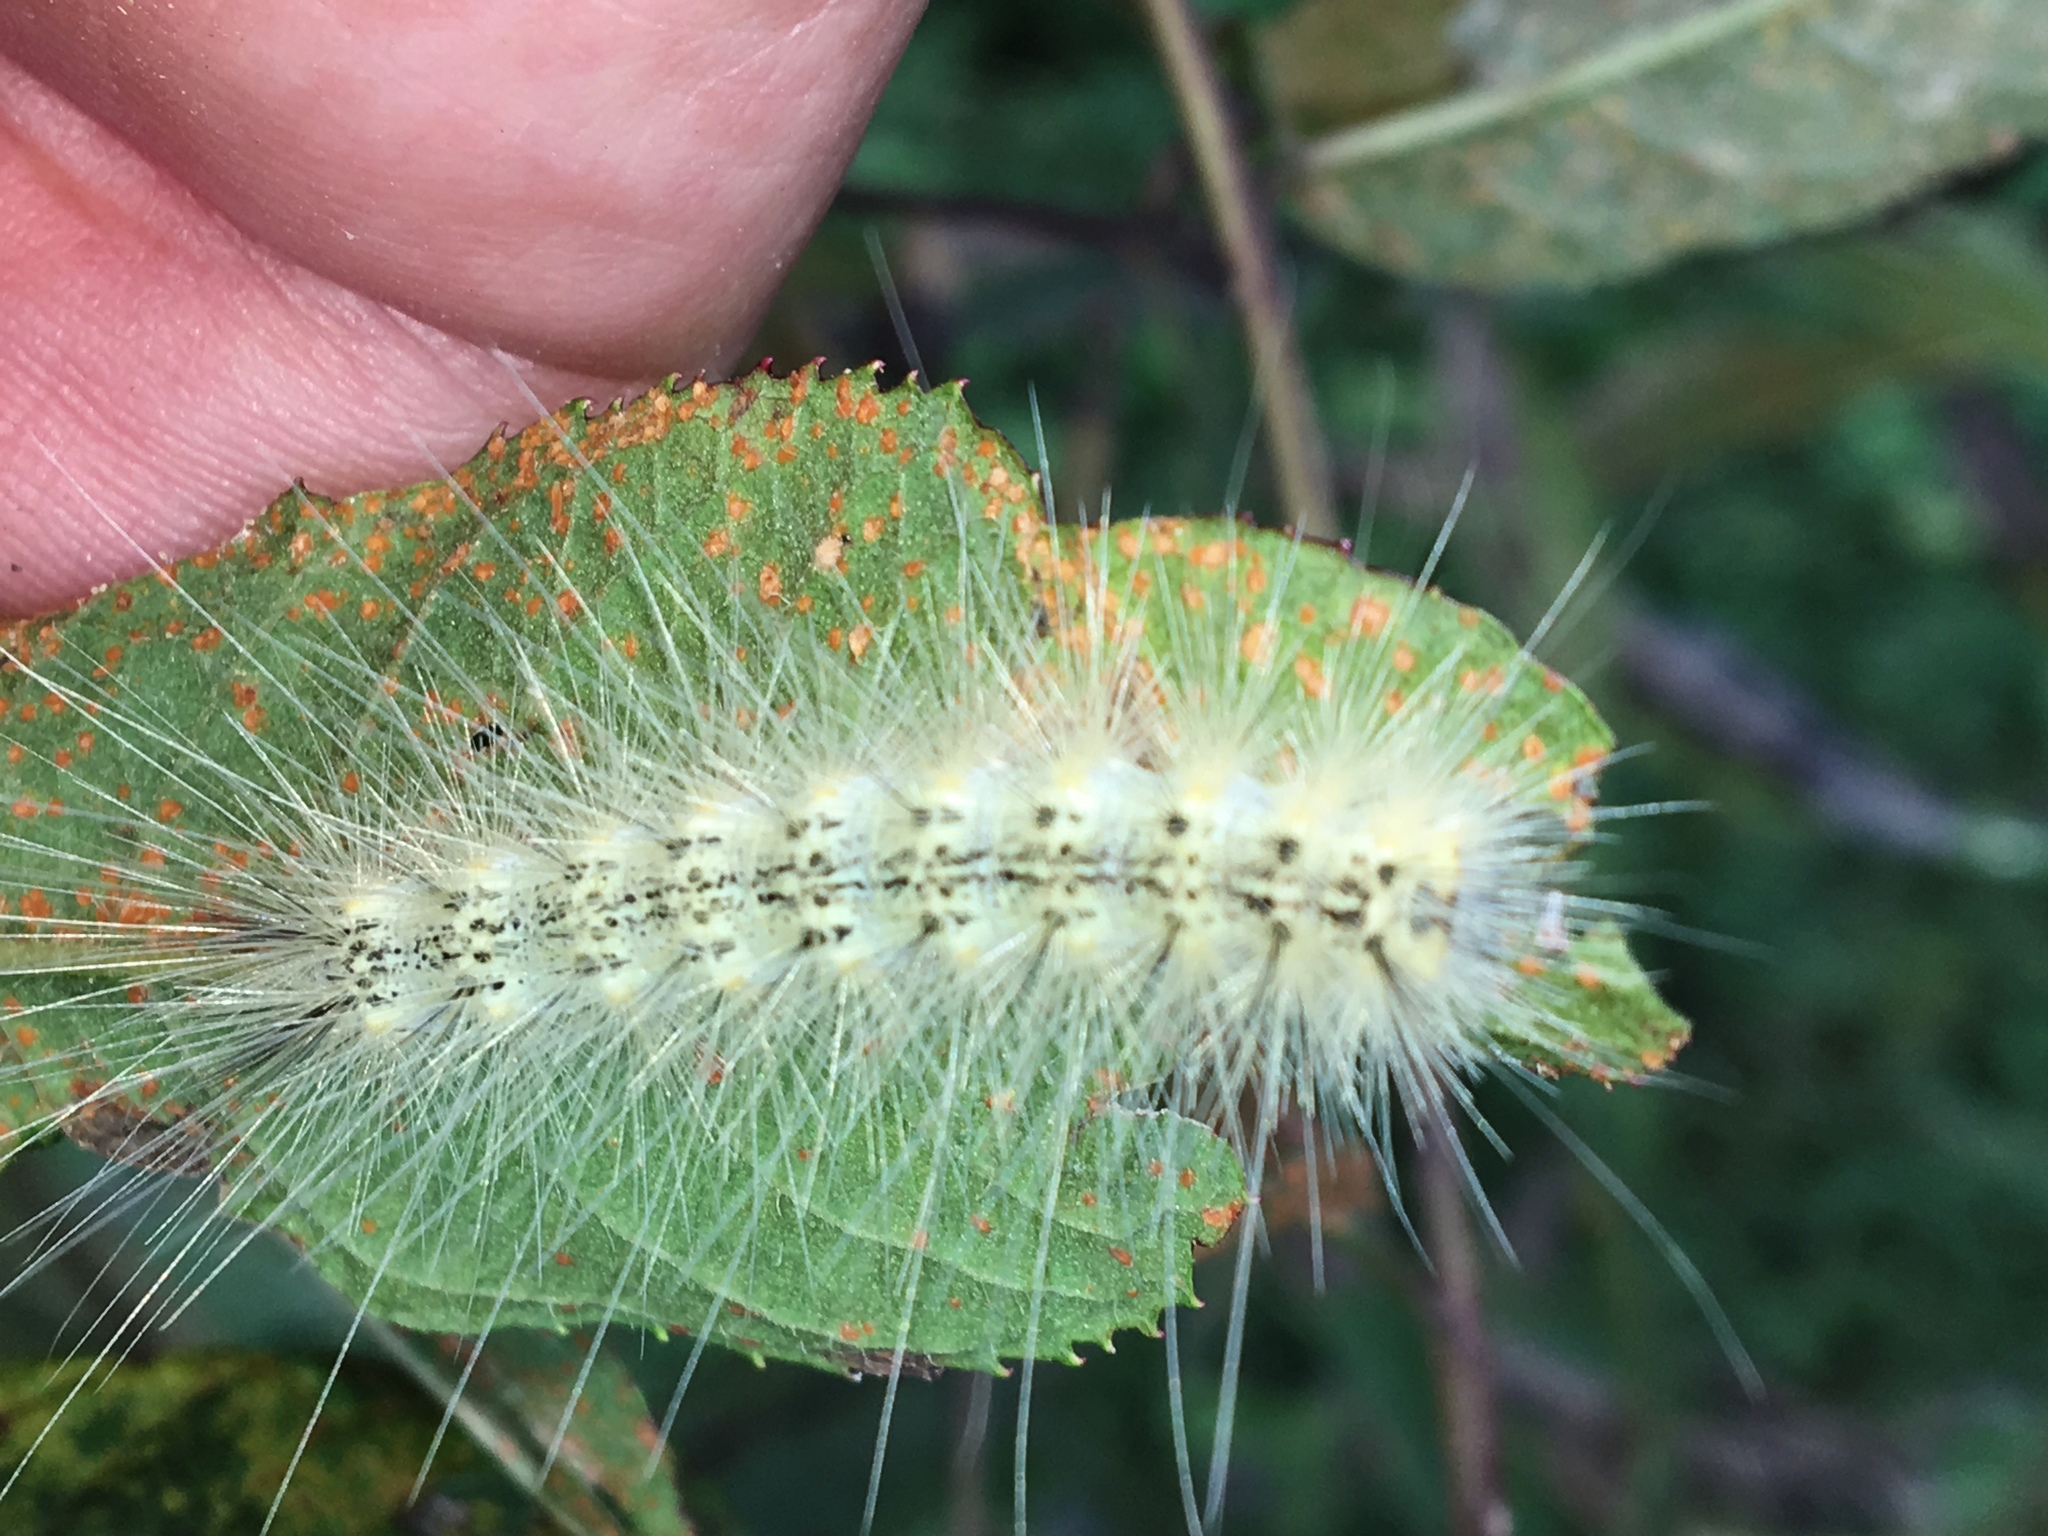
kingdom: Animalia
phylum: Arthropoda
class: Insecta
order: Lepidoptera
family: Erebidae
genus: Hyphantria
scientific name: Hyphantria cunea
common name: American white moth
